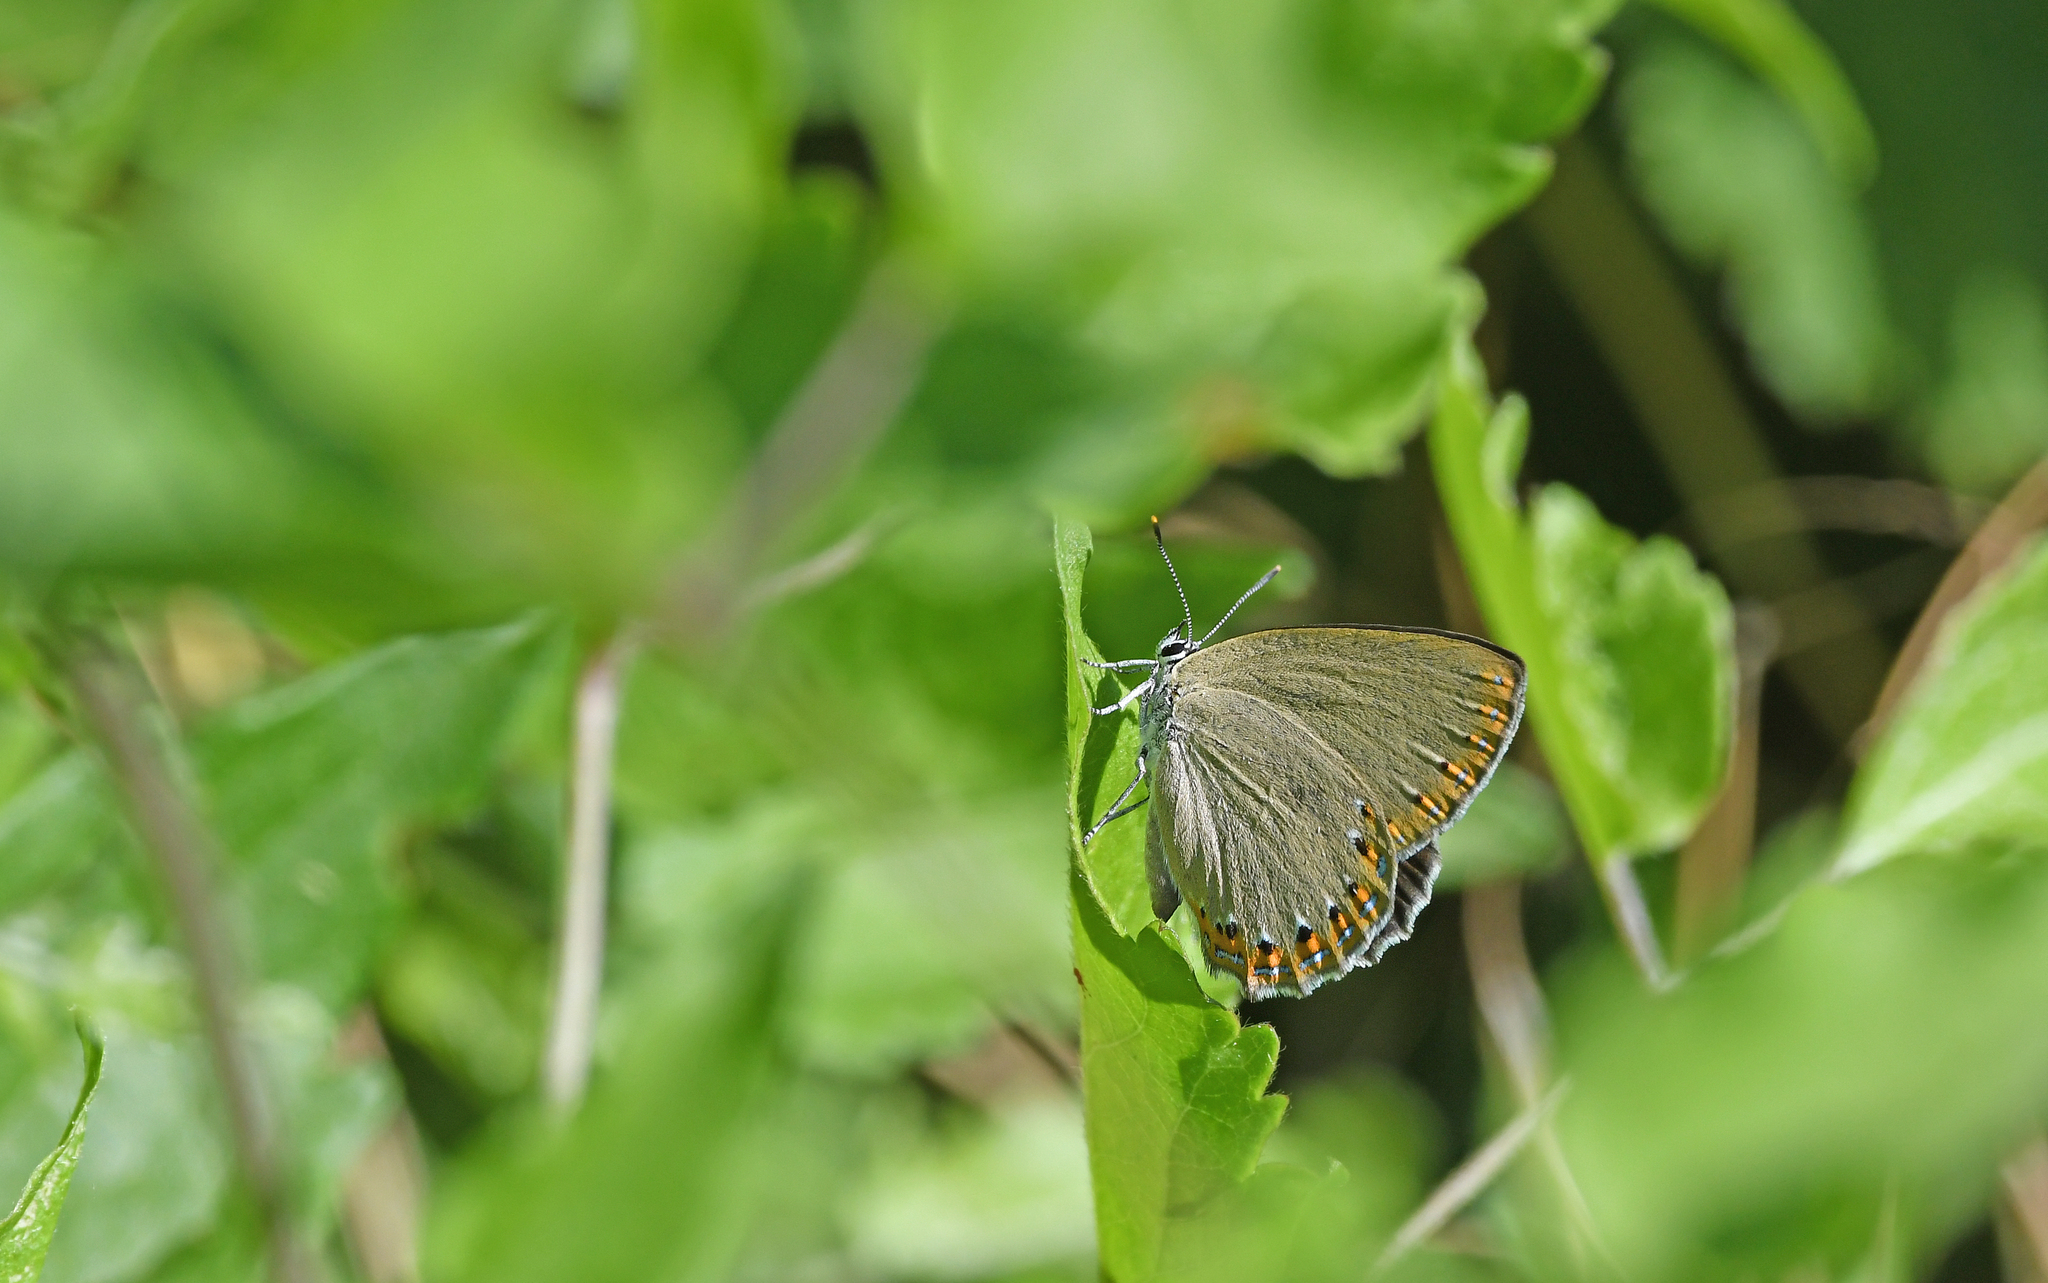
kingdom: Animalia
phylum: Arthropoda
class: Insecta
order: Lepidoptera
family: Lycaenidae
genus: Laeosopis
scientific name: Laeosopis roboris
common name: Spanish purple hairstreak
